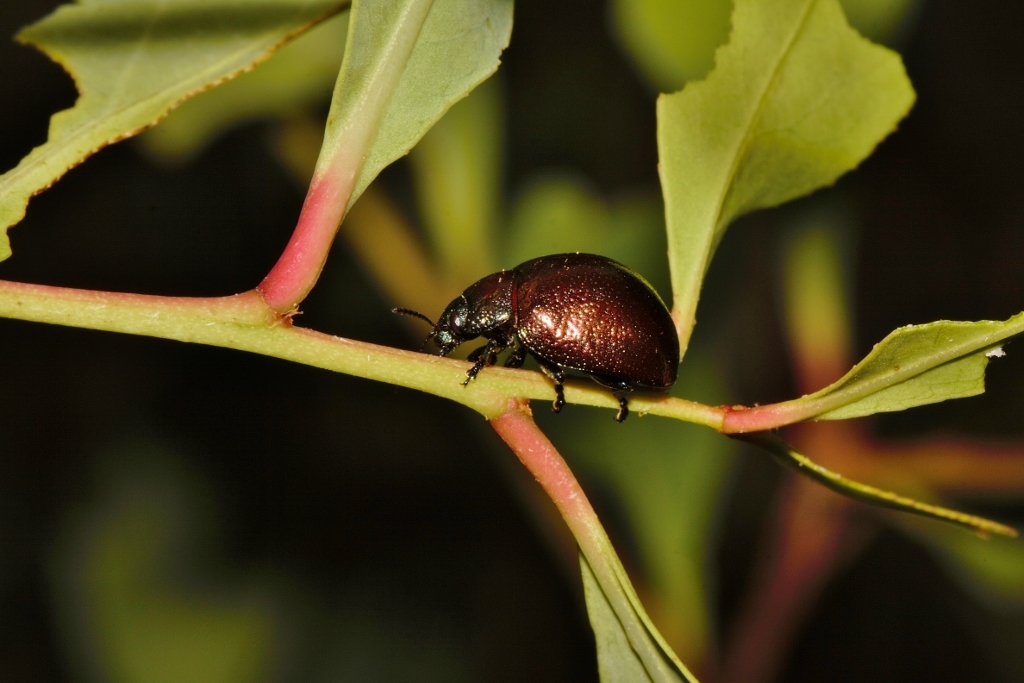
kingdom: Plantae
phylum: Tracheophyta
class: Magnoliopsida
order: Celastrales
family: Celastraceae
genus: Gymnosporia
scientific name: Gymnosporia senegalensis
